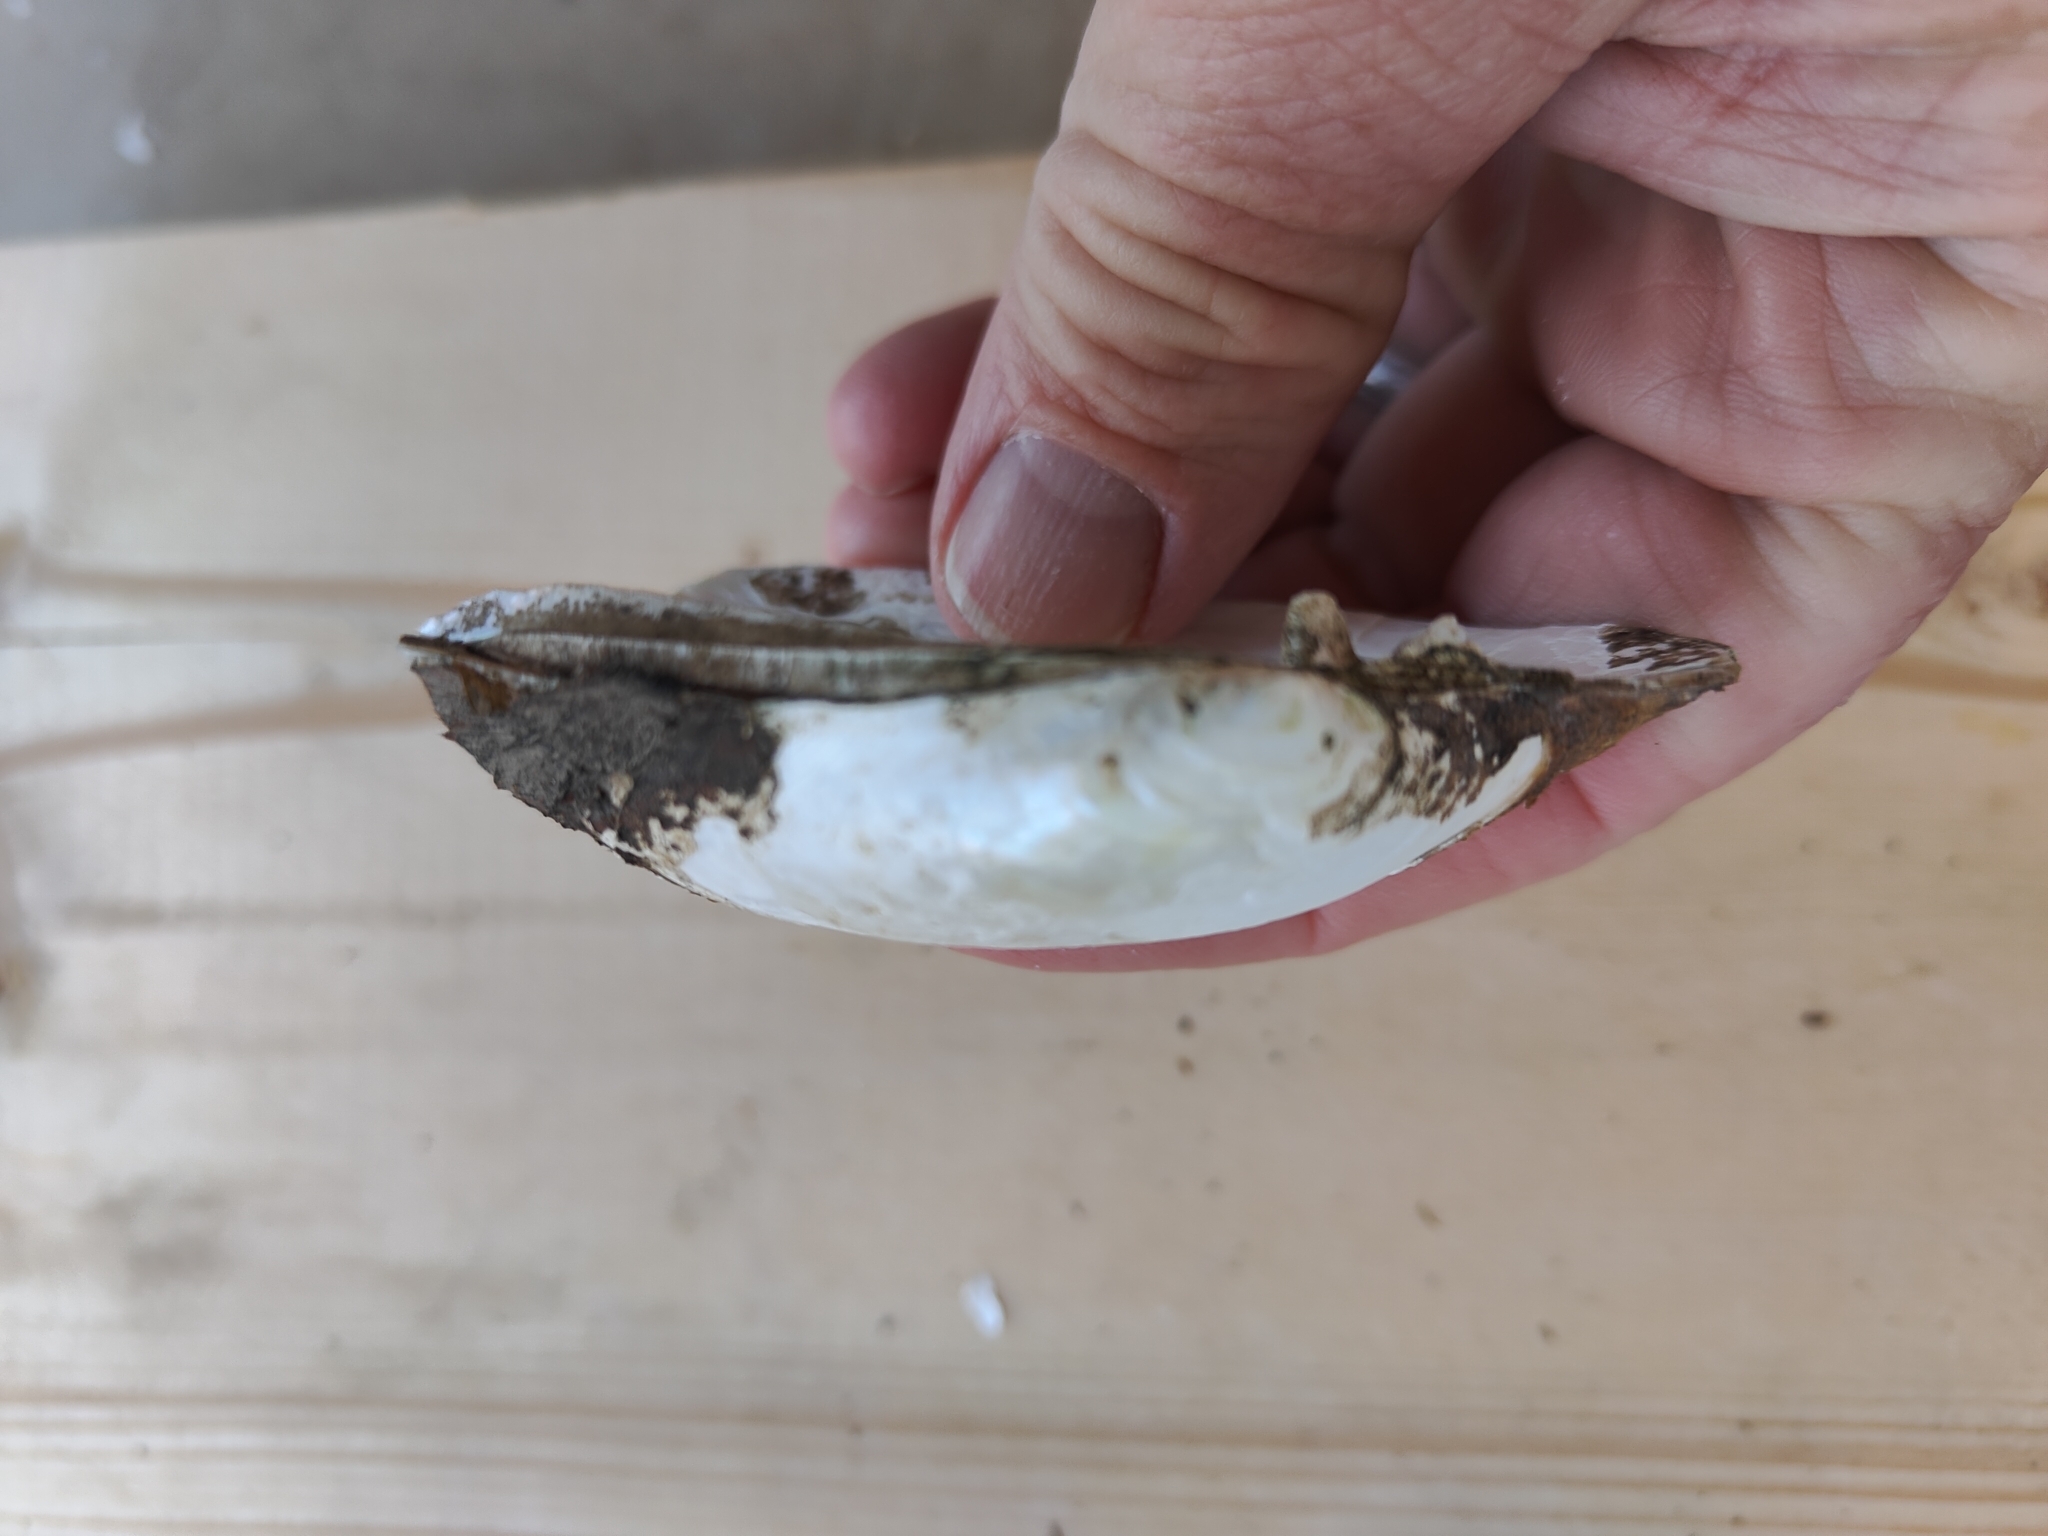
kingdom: Animalia
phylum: Mollusca
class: Bivalvia
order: Unionida
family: Unionidae
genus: Lampsilis
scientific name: Lampsilis siliquoidea
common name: Fatmucket
